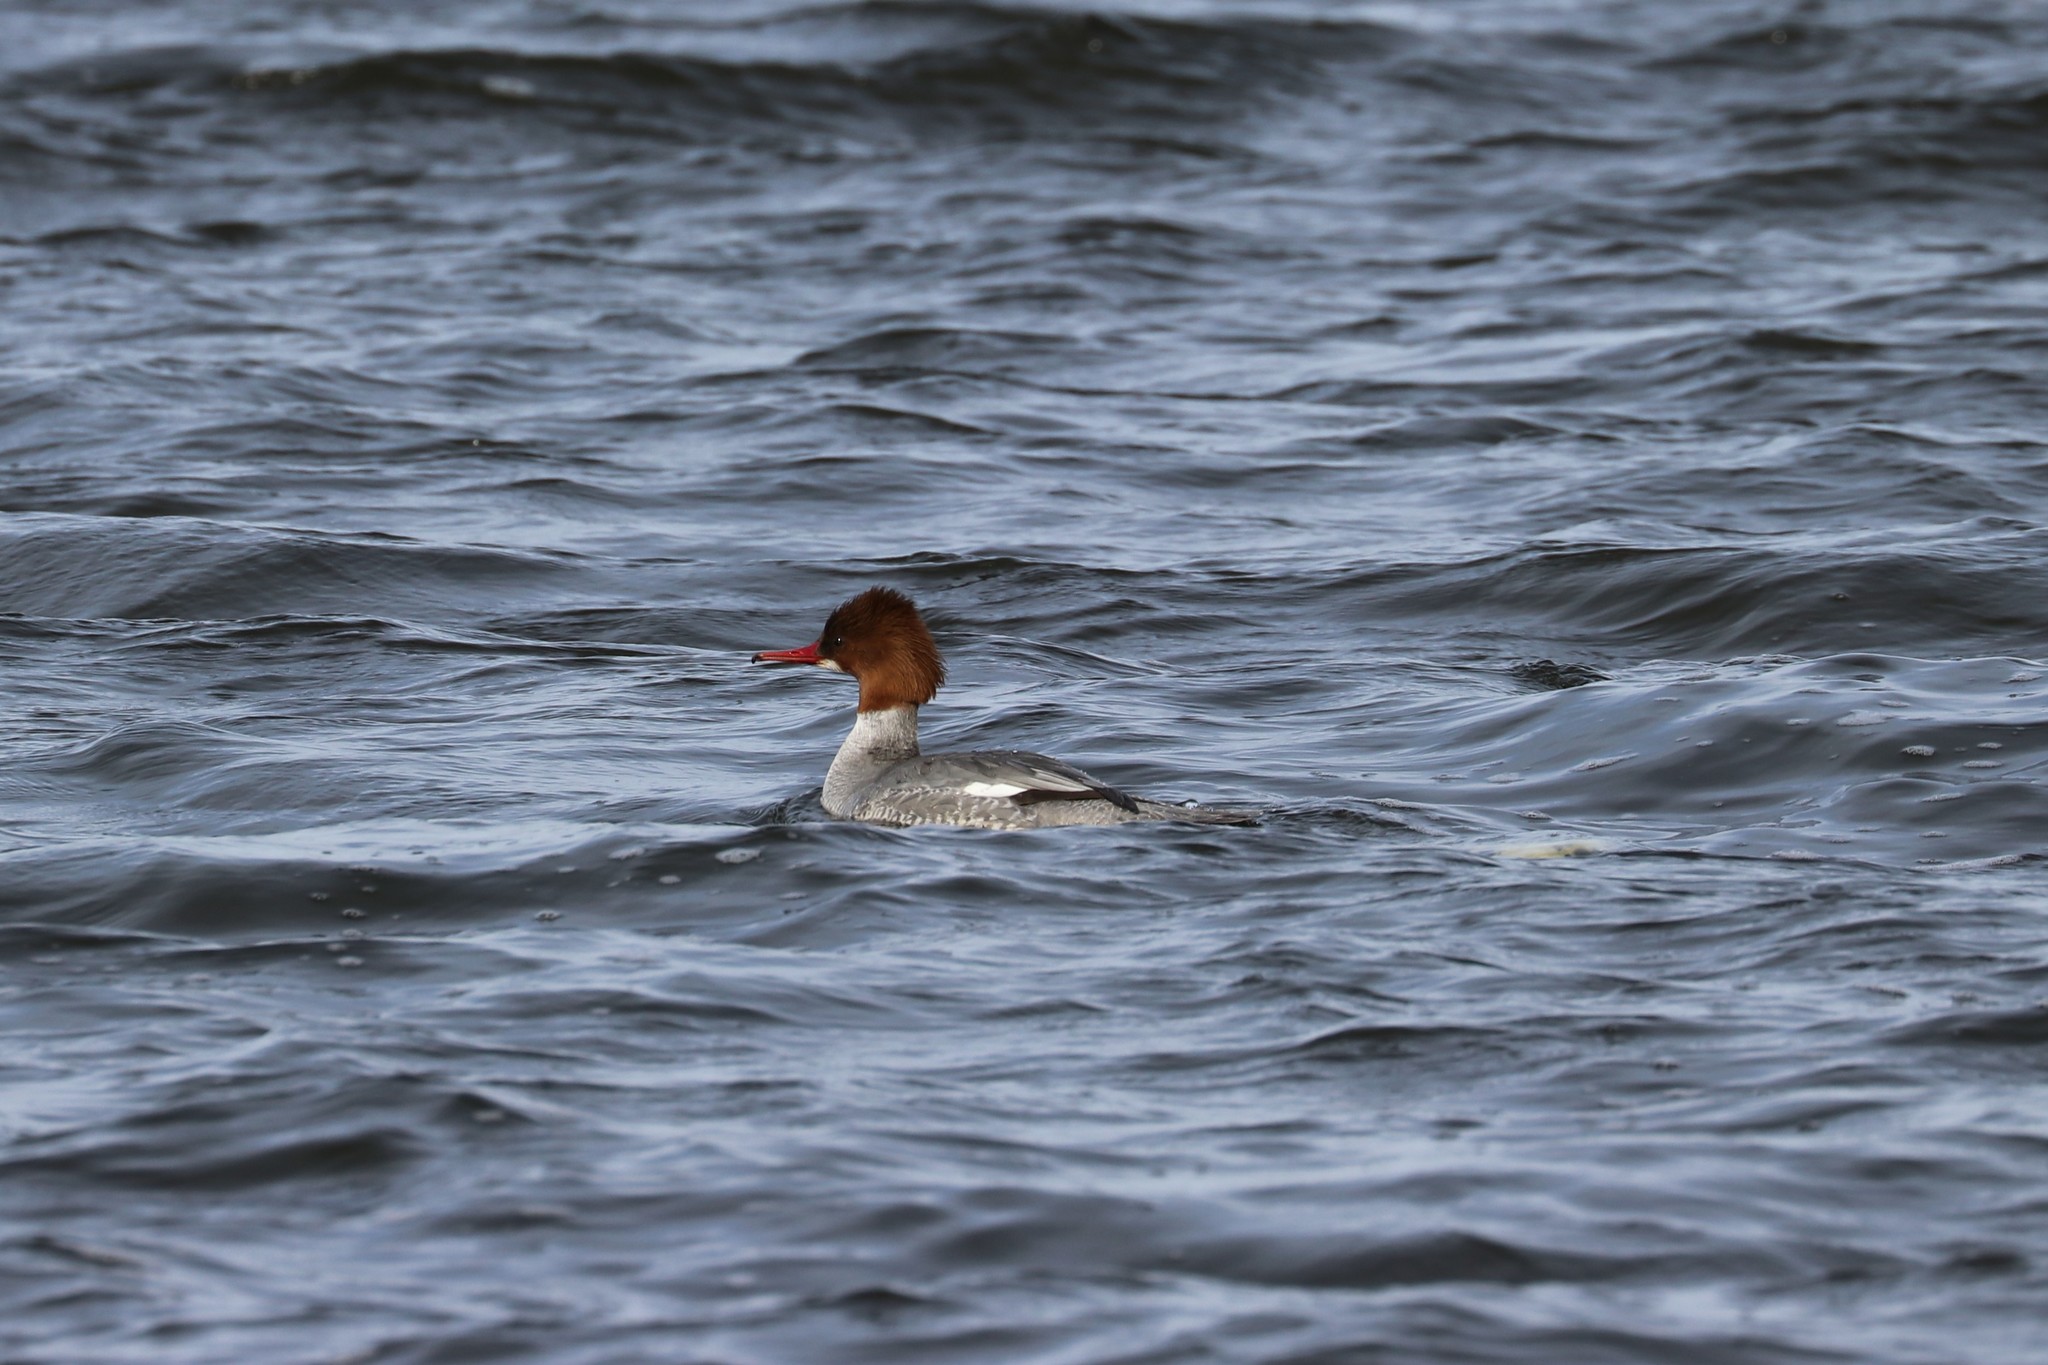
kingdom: Animalia
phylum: Chordata
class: Aves
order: Anseriformes
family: Anatidae
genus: Mergus
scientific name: Mergus merganser
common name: Common merganser
